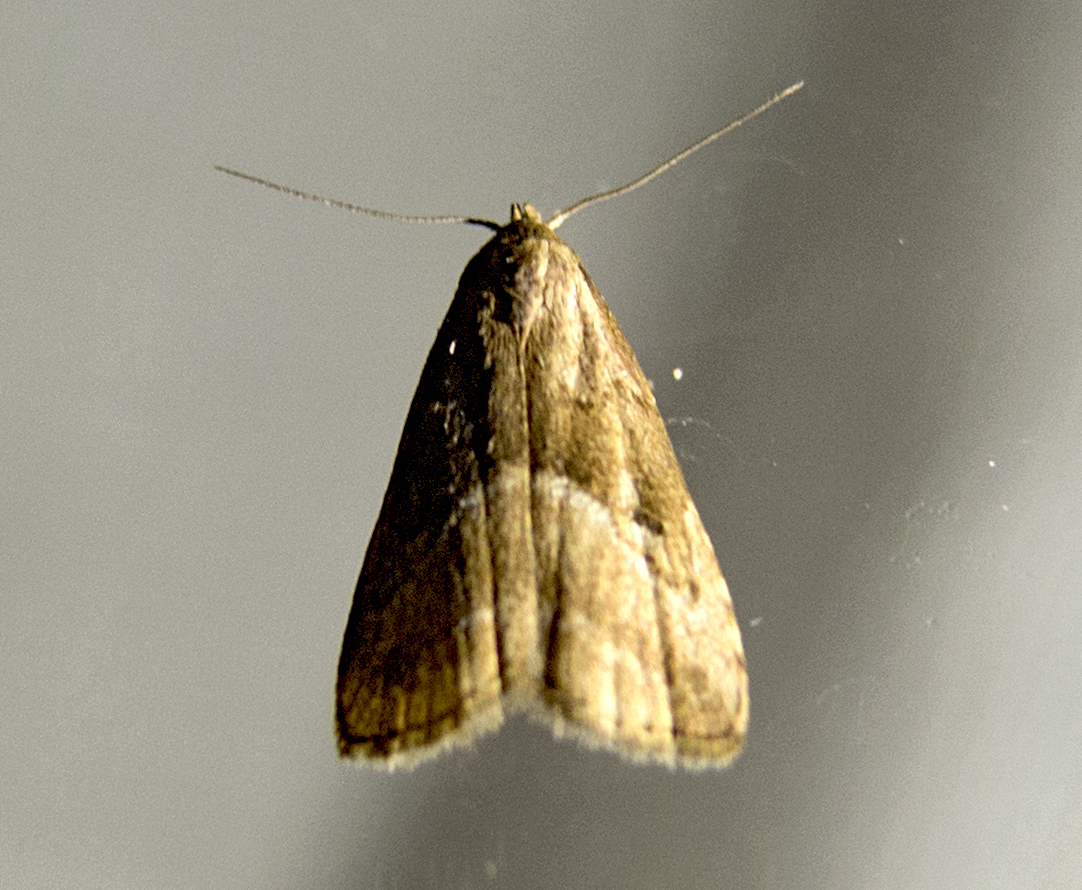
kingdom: Animalia
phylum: Arthropoda
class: Insecta
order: Lepidoptera
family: Erebidae
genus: Hypenodes
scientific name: Hypenodes humidalis
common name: Marsh oblique-barred
